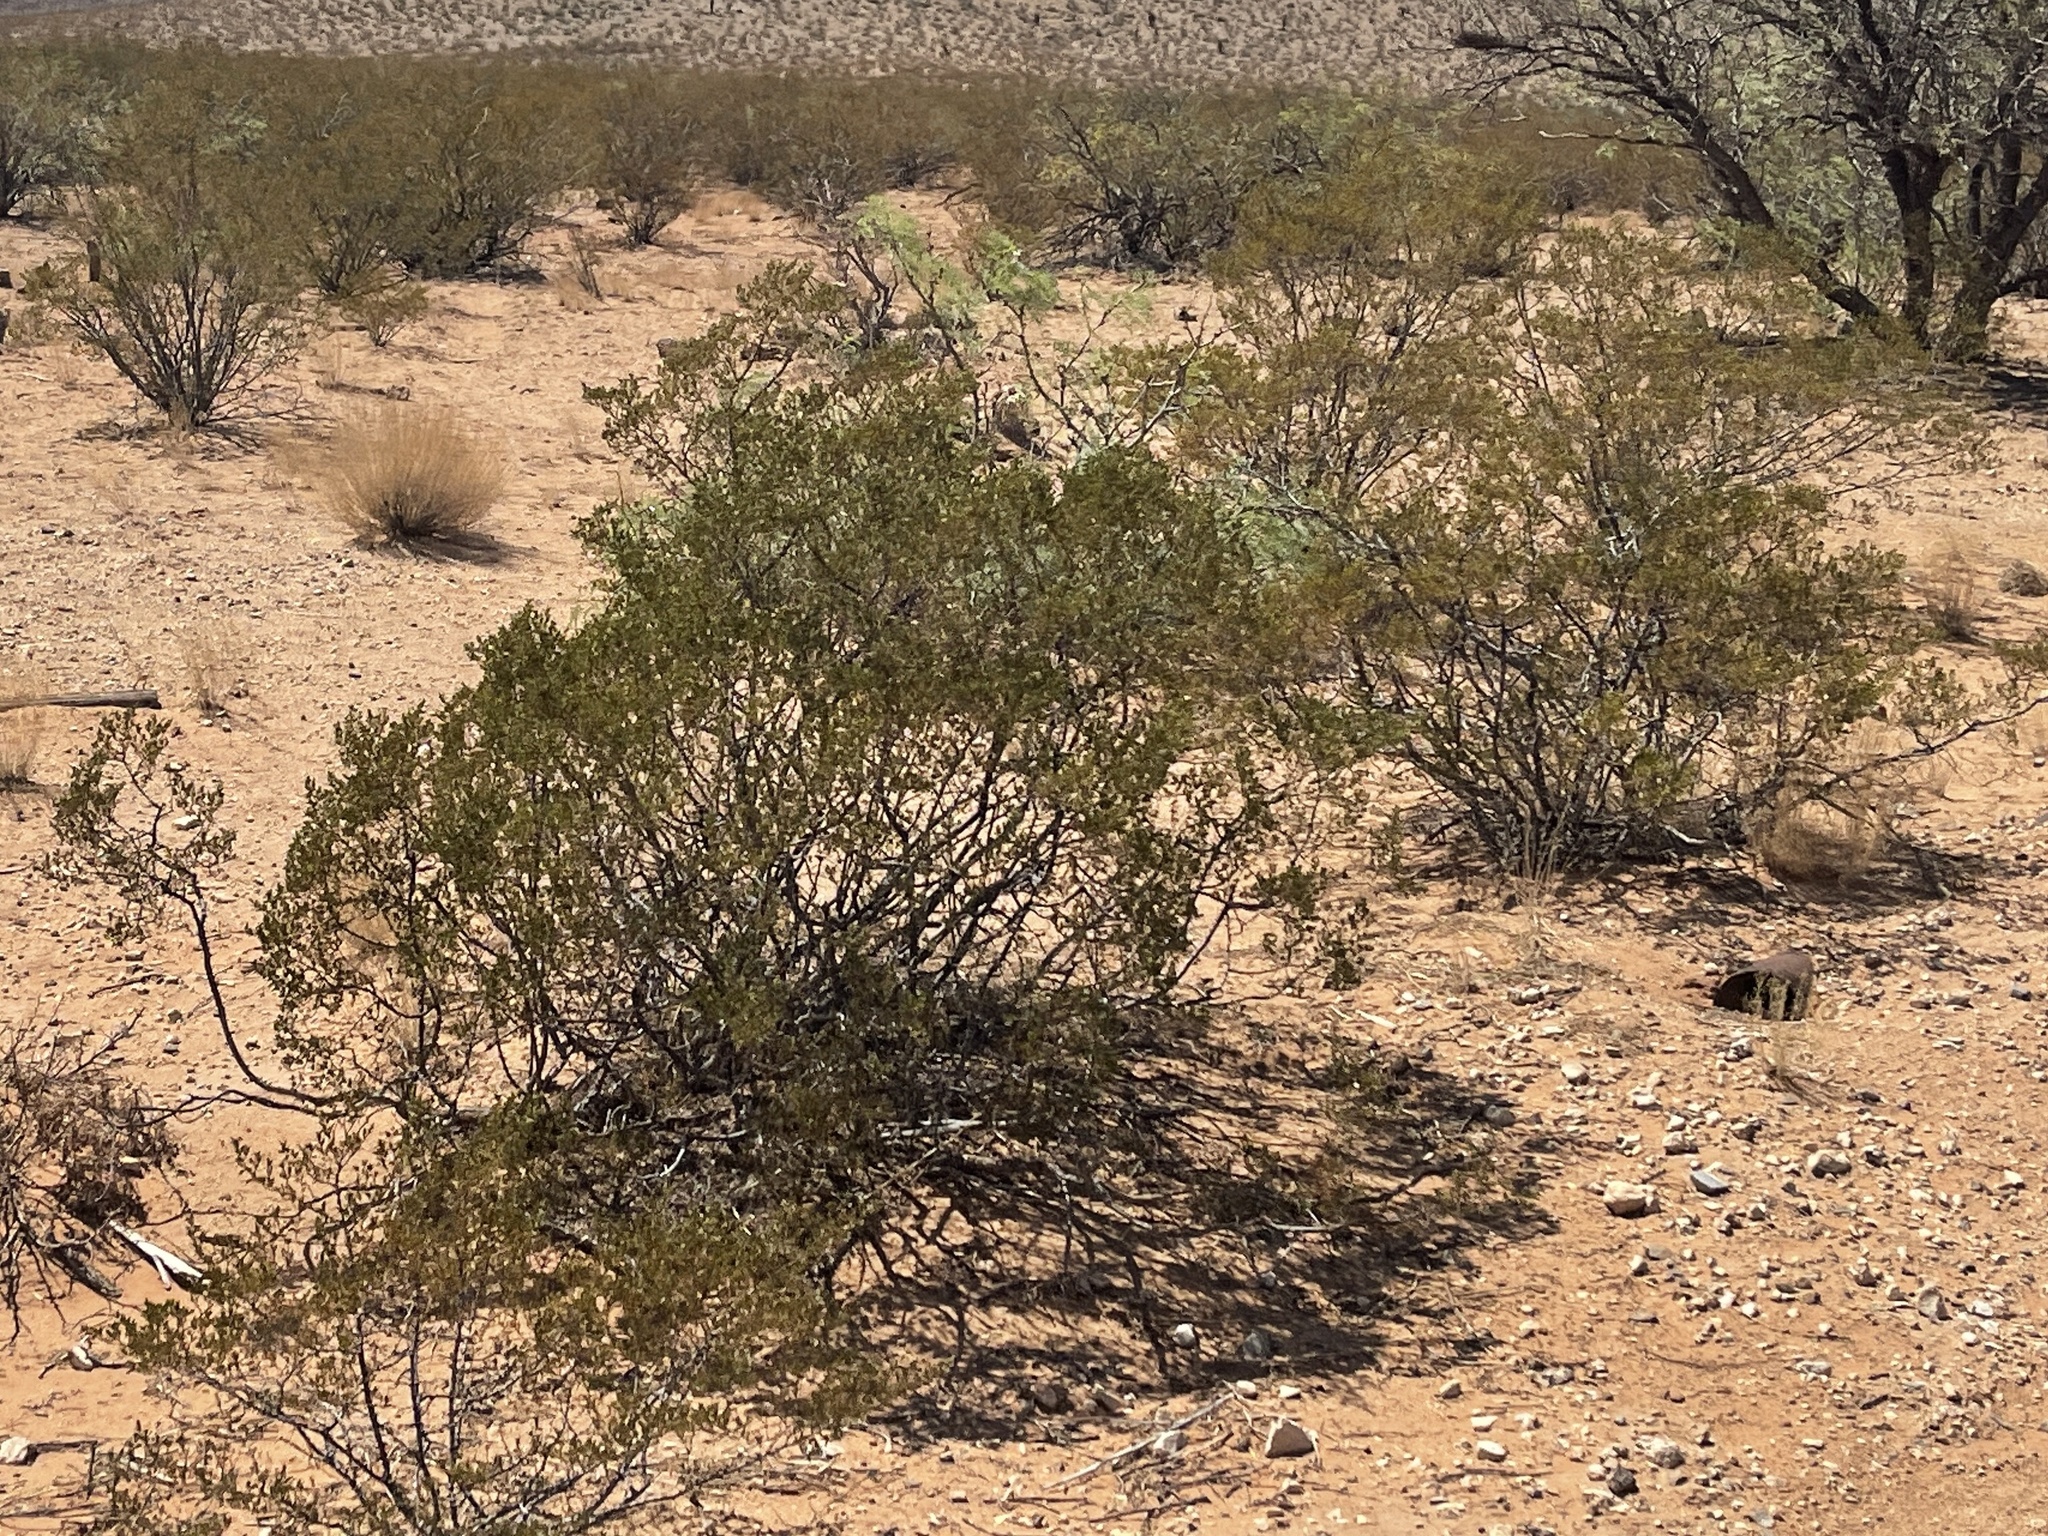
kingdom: Plantae
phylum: Tracheophyta
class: Magnoliopsida
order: Zygophyllales
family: Zygophyllaceae
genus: Larrea
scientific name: Larrea tridentata
